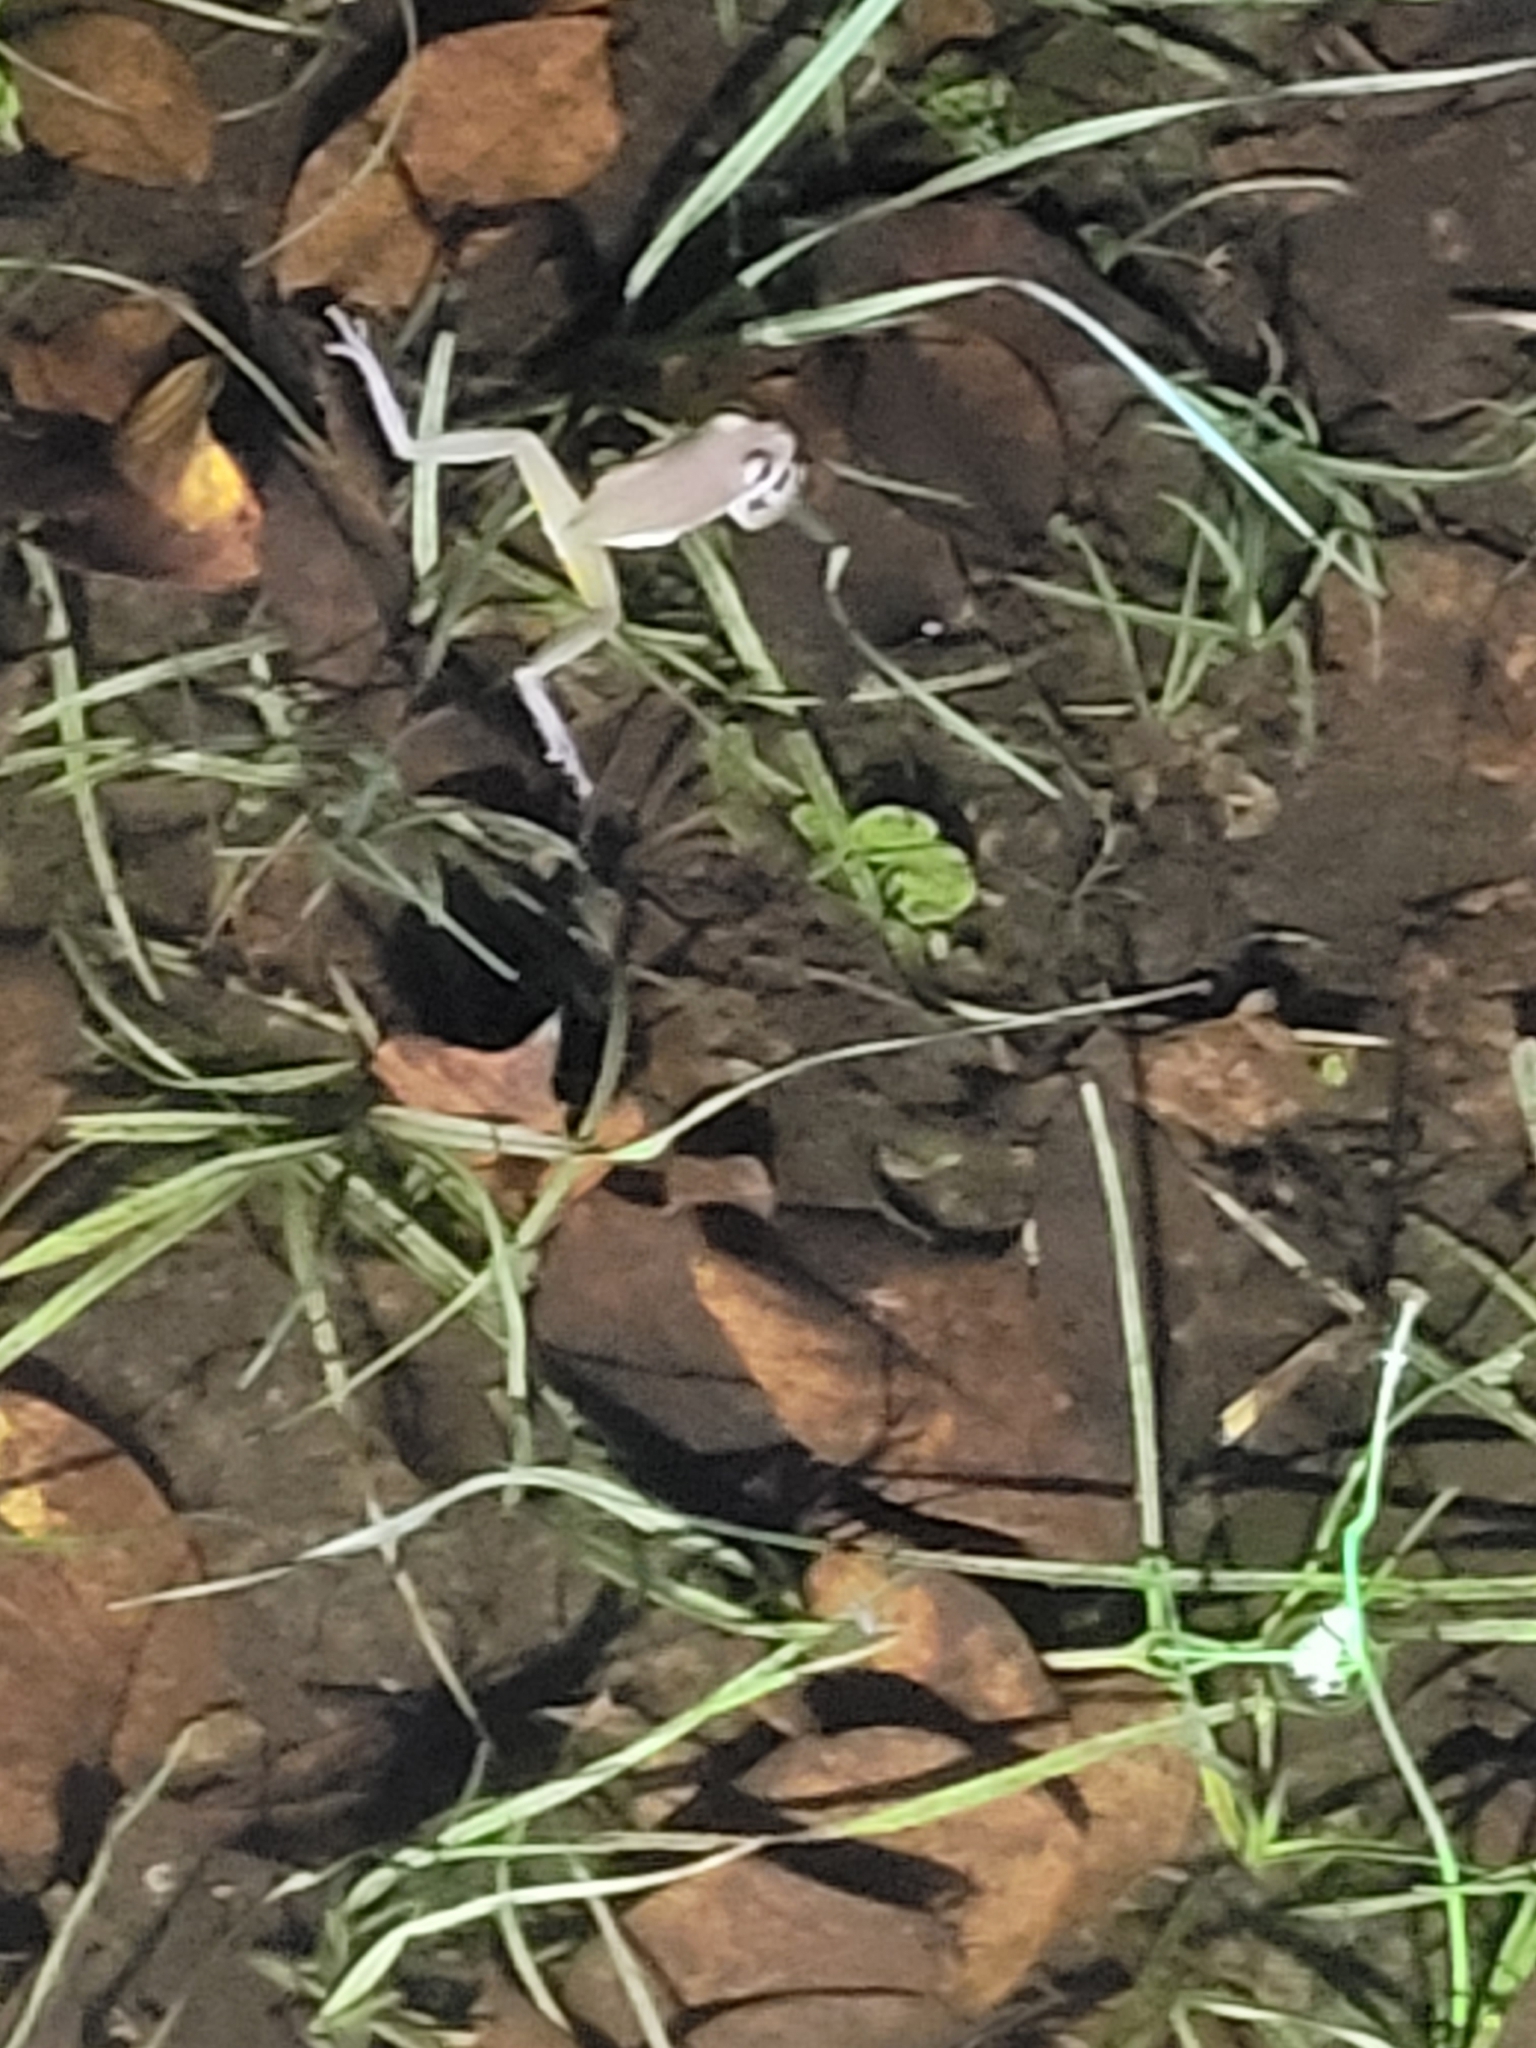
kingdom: Animalia
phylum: Chordata
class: Amphibia
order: Anura
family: Hylidae
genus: Dryophytes
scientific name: Dryophytes squirellus
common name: Squirrel treefrog
